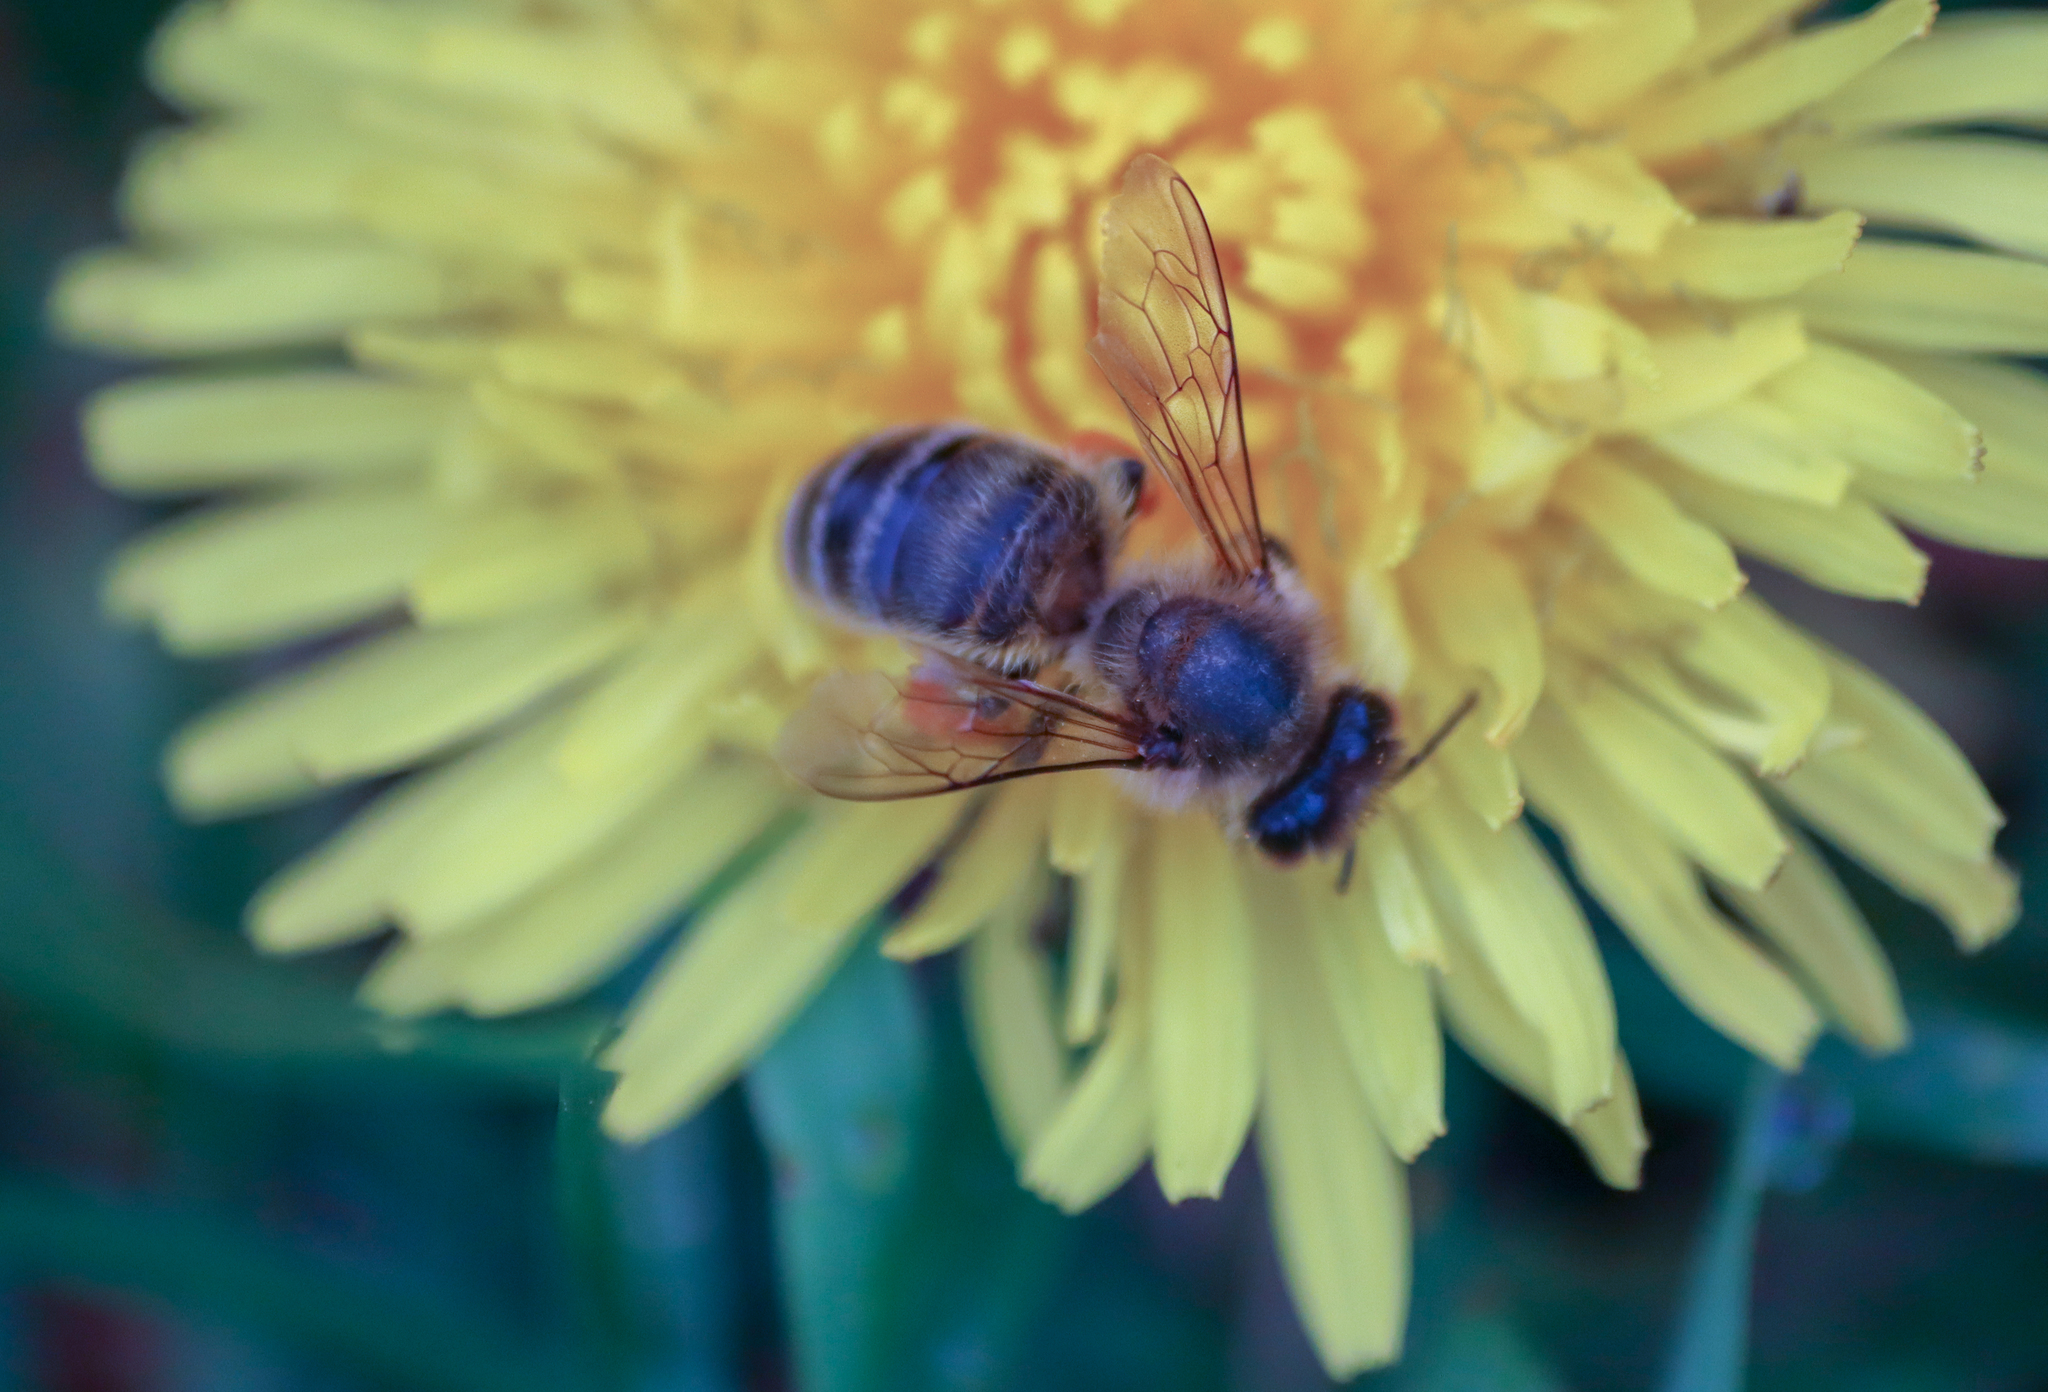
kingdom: Animalia
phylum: Arthropoda
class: Insecta
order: Hymenoptera
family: Apidae
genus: Apis
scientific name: Apis mellifera
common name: Honey bee
